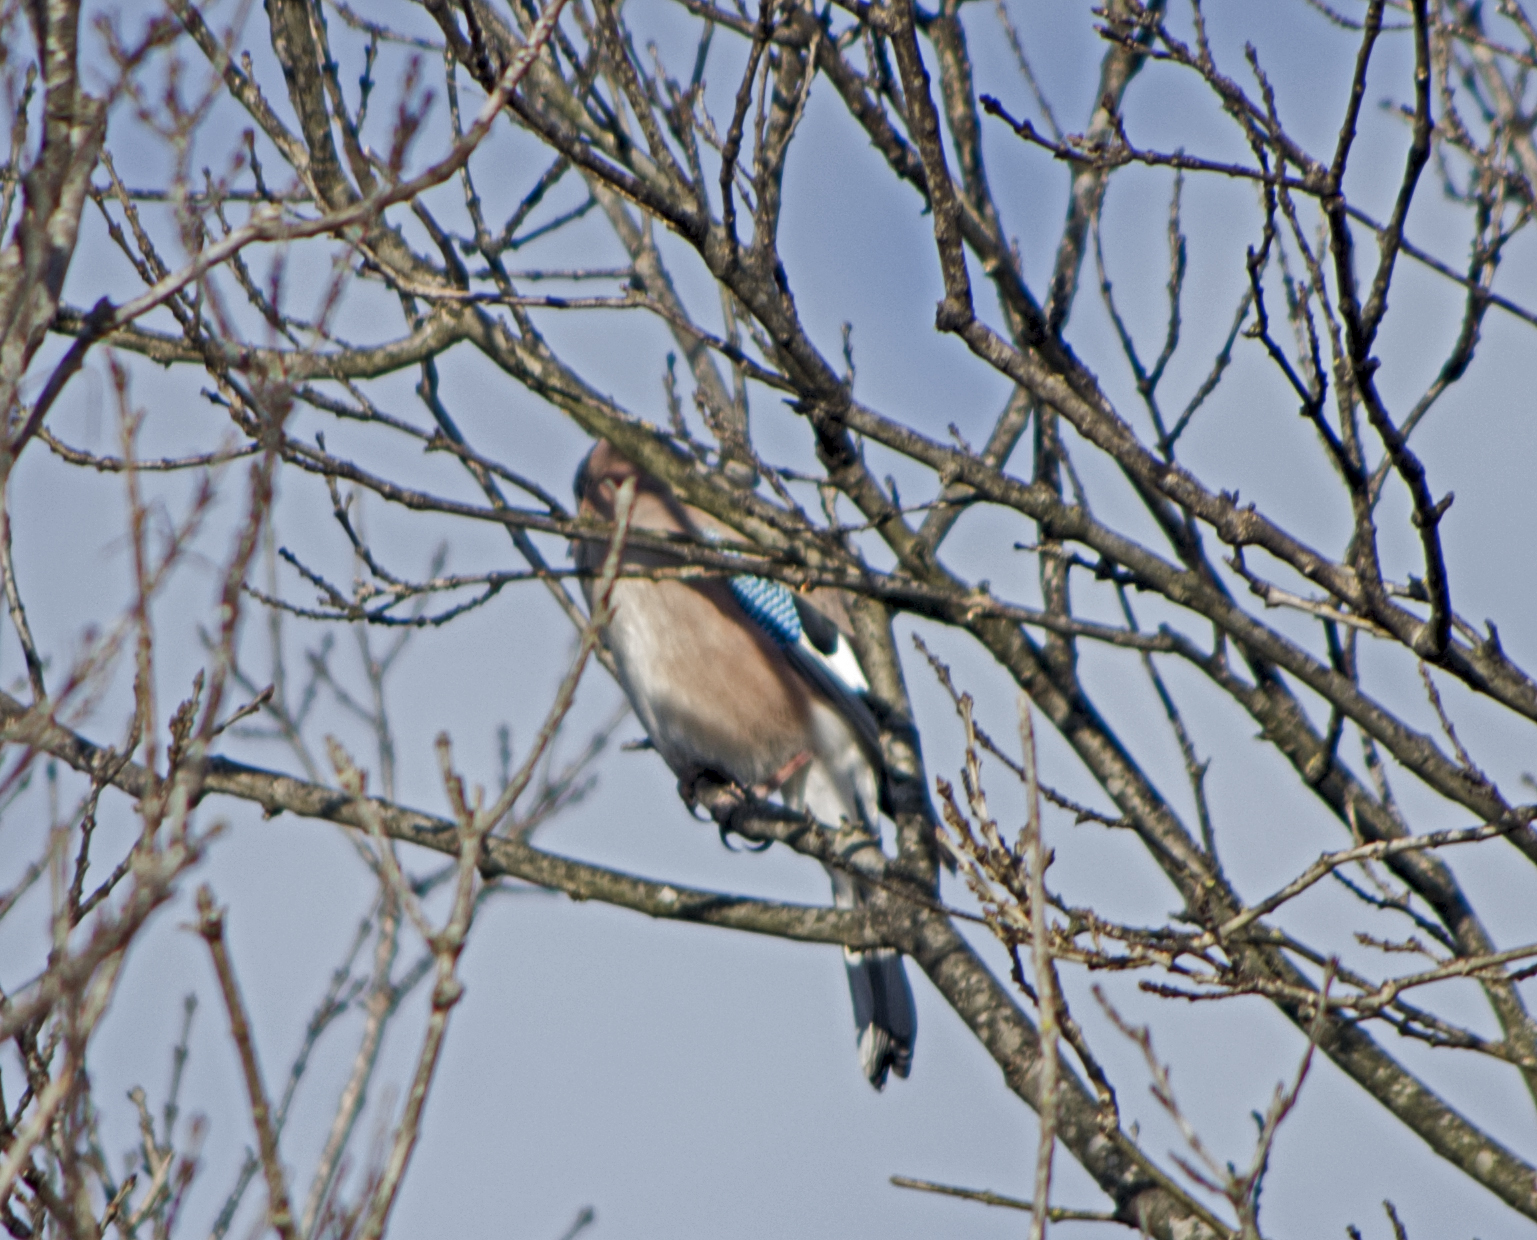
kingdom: Animalia
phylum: Chordata
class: Aves
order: Passeriformes
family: Corvidae
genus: Garrulus
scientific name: Garrulus glandarius
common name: Eurasian jay
